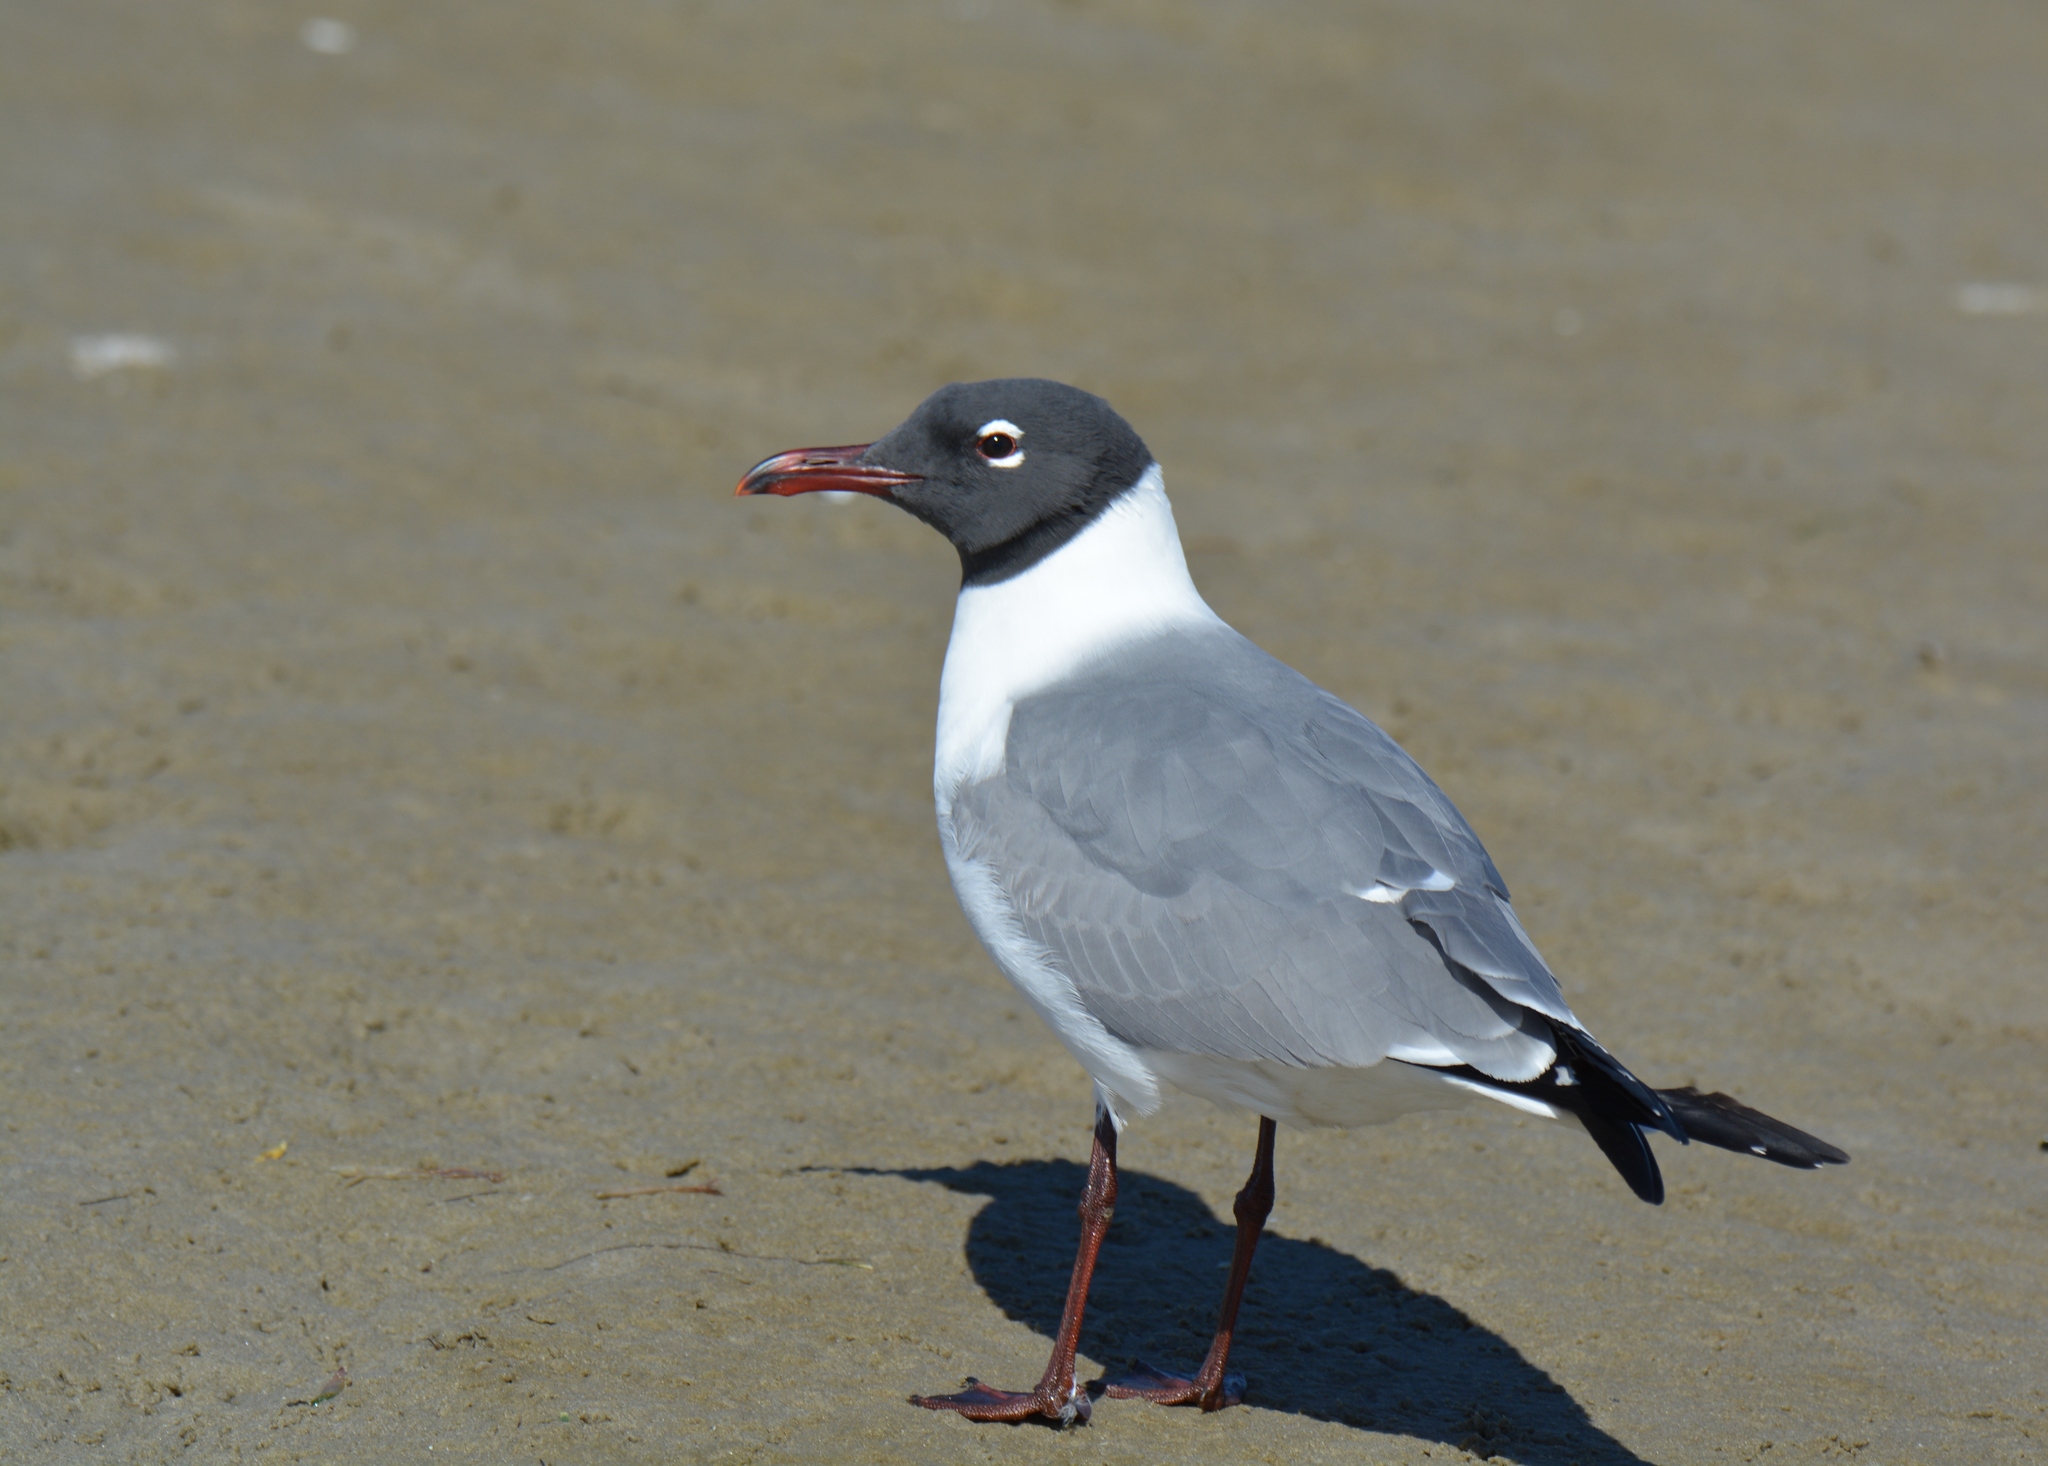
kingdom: Animalia
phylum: Chordata
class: Aves
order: Charadriiformes
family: Laridae
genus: Leucophaeus
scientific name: Leucophaeus atricilla
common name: Laughing gull
